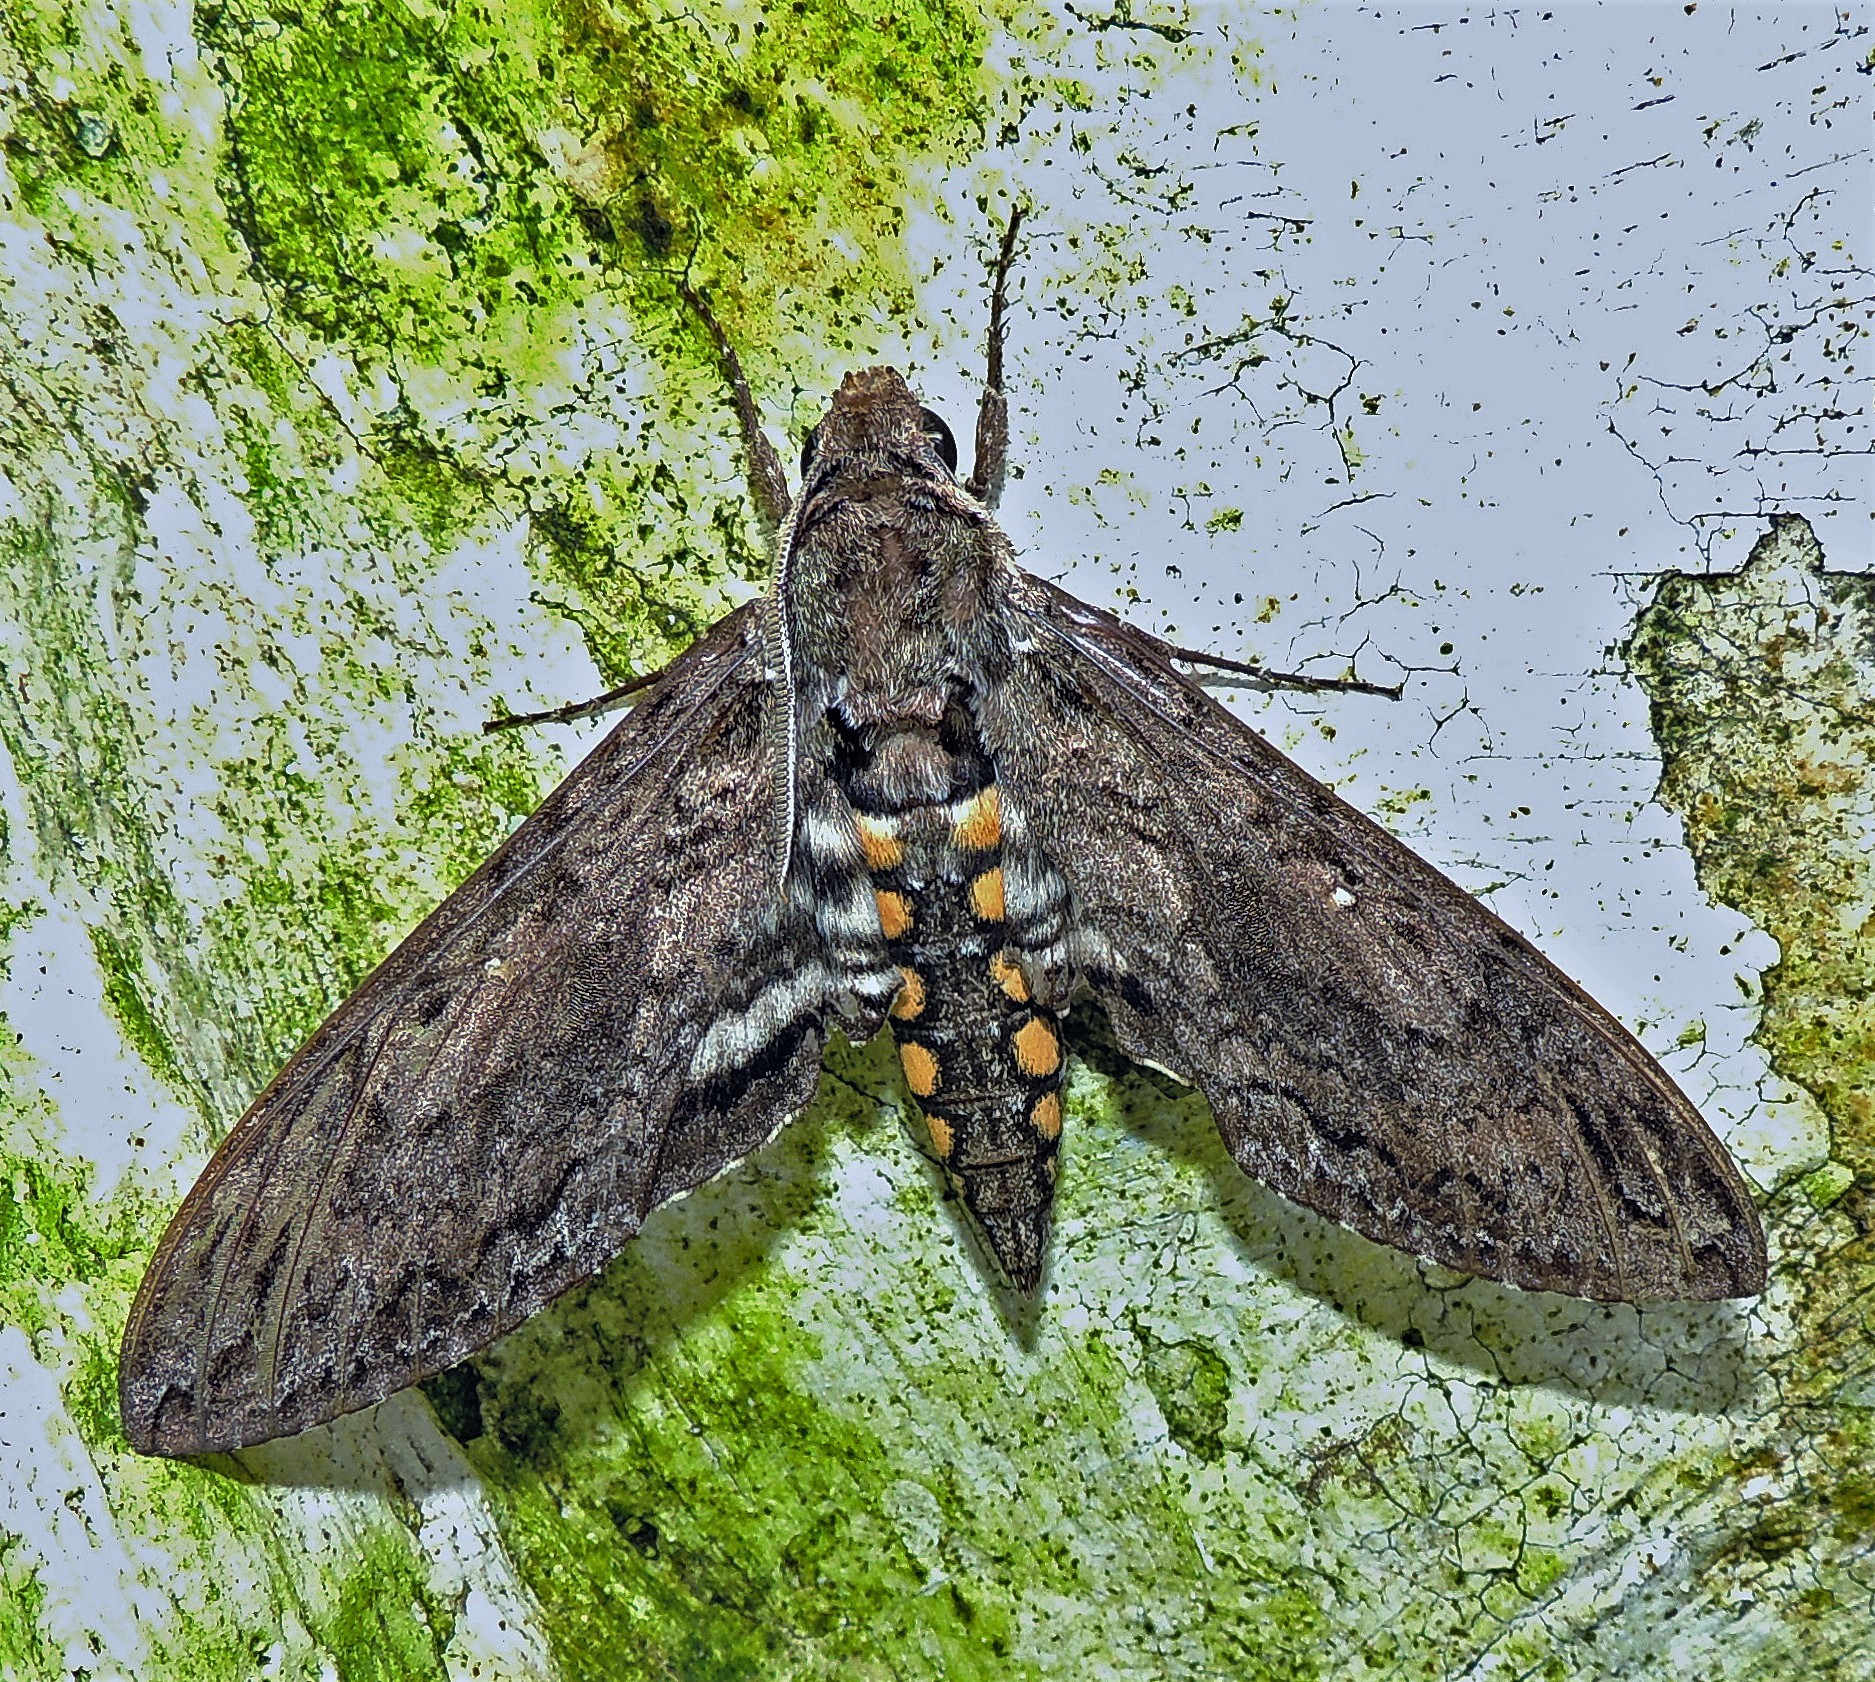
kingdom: Animalia
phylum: Arthropoda
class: Insecta
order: Lepidoptera
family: Sphingidae
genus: Manduca
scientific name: Manduca afflicta
